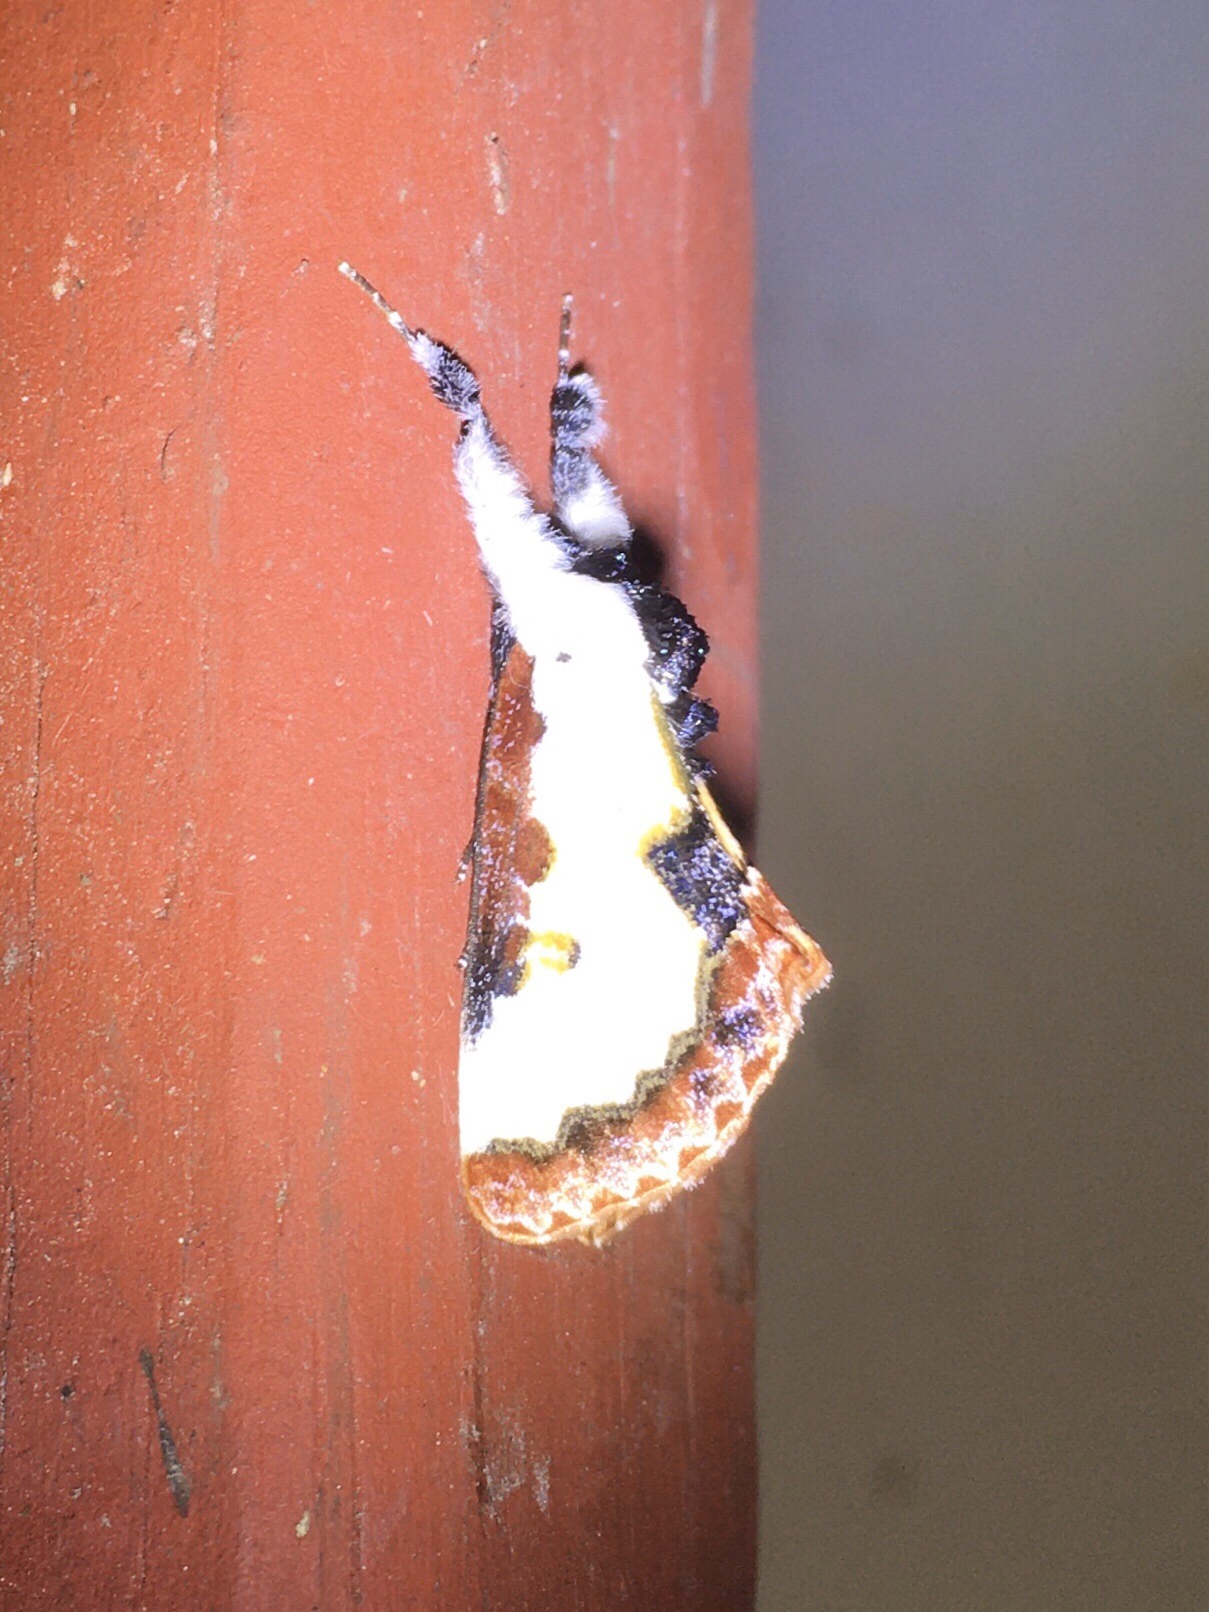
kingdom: Animalia
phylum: Arthropoda
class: Insecta
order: Lepidoptera
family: Noctuidae
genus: Eudryas
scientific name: Eudryas unio
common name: Pearly wood-nymph
